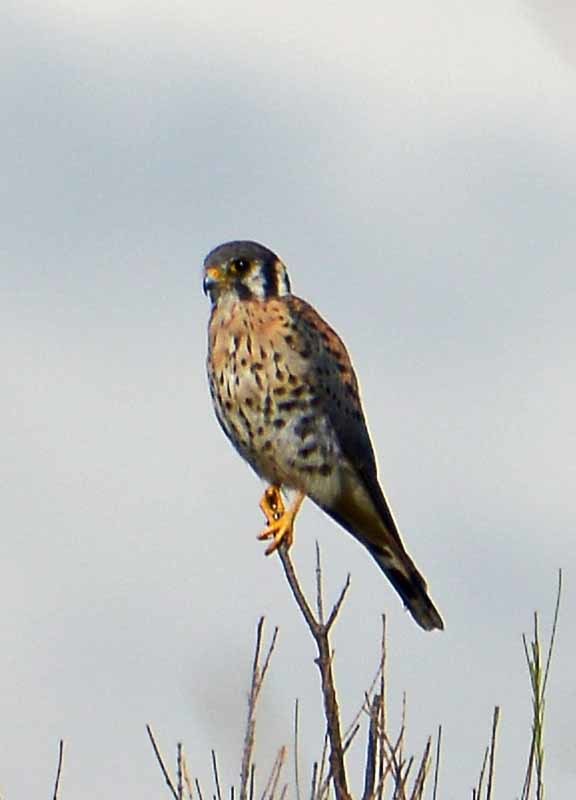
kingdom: Animalia
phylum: Chordata
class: Aves
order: Falconiformes
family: Falconidae
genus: Falco
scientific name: Falco sparverius
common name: American kestrel
